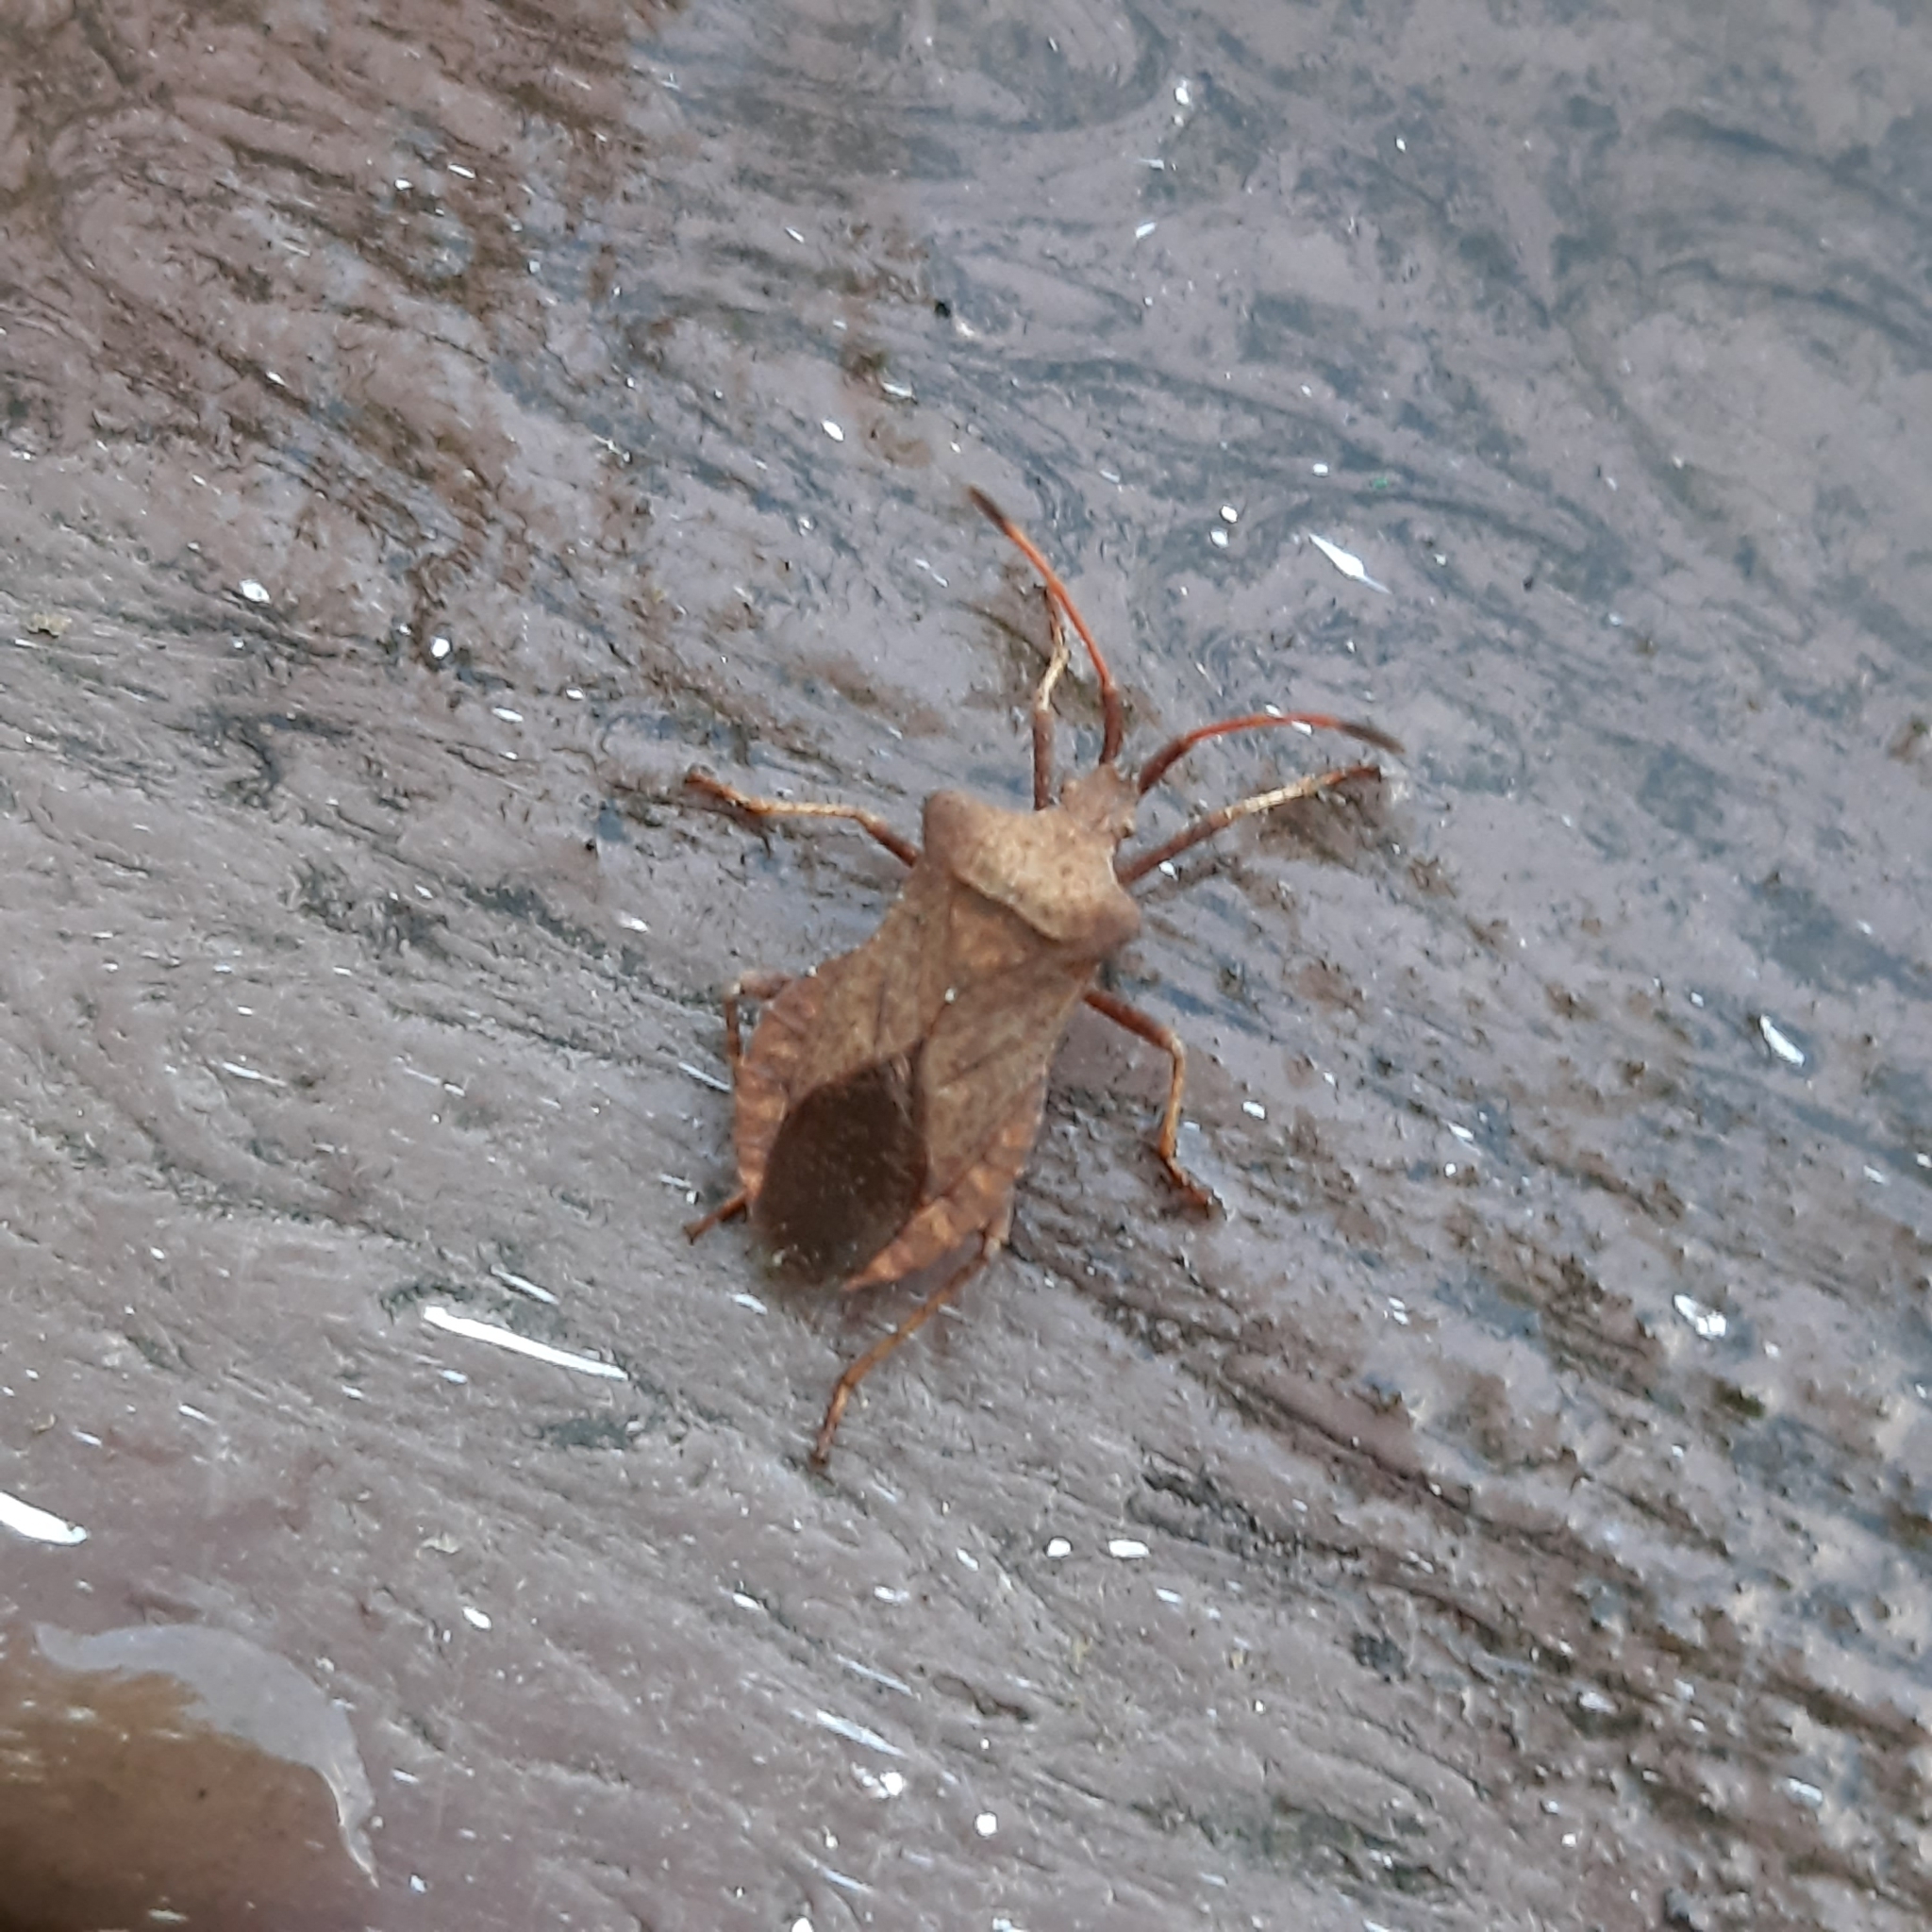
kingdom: Animalia
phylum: Arthropoda
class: Insecta
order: Hemiptera
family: Coreidae
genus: Coreus
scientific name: Coreus marginatus
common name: Dock bug
